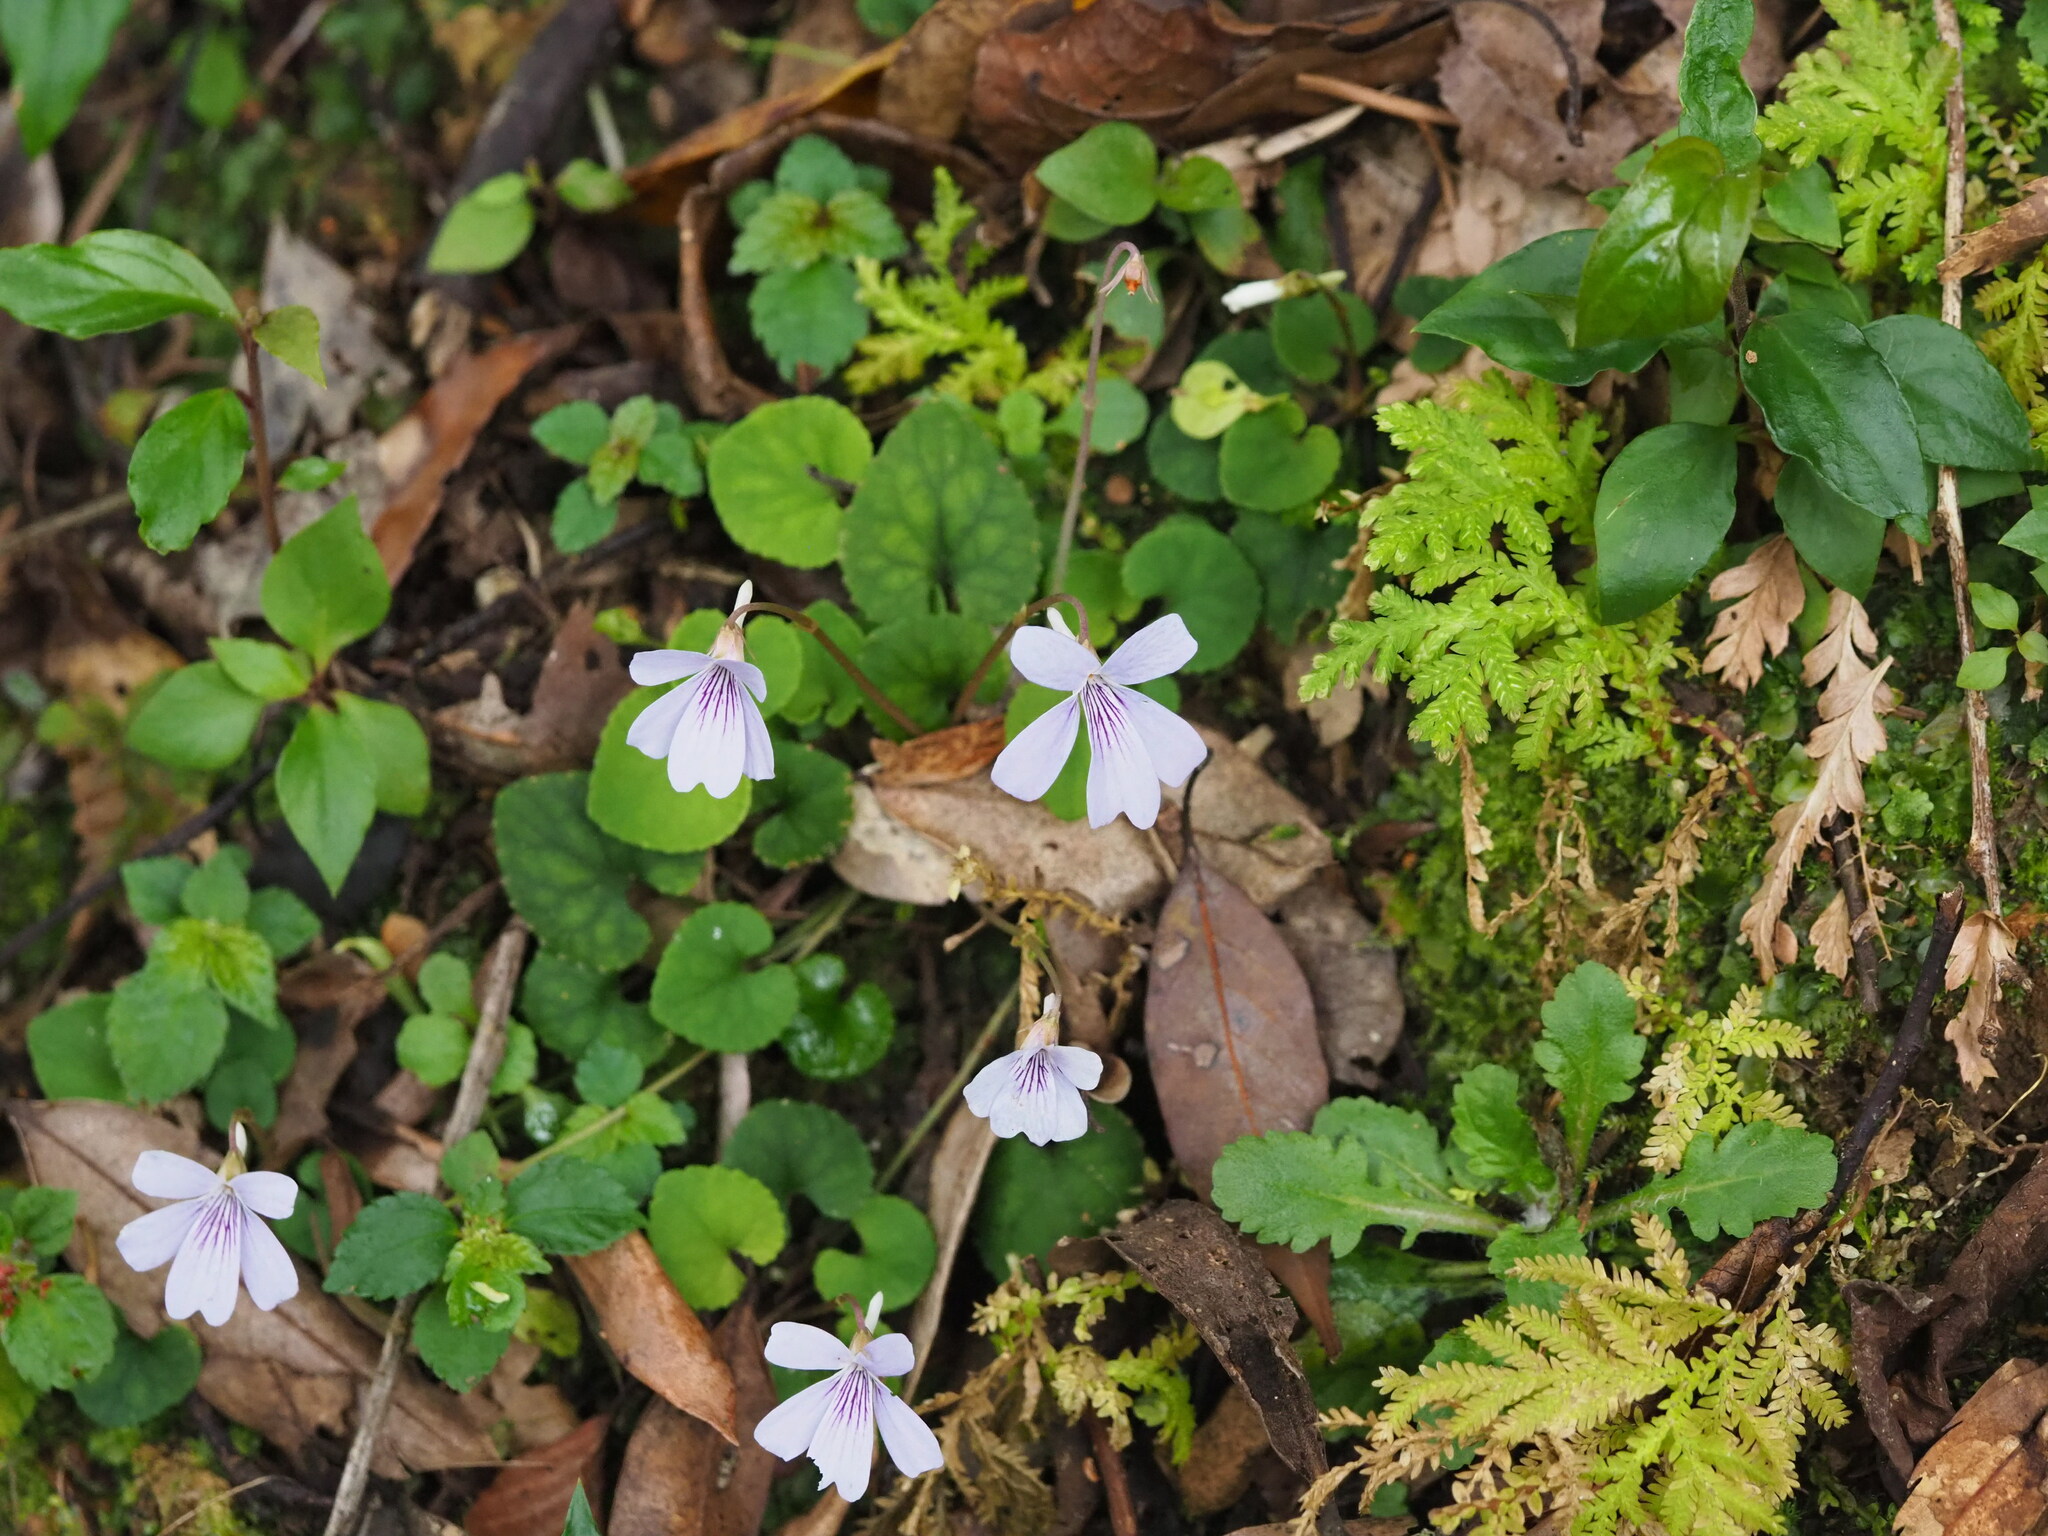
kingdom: Plantae
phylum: Tracheophyta
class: Magnoliopsida
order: Malpighiales
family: Violaceae
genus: Viola
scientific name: Viola formosana
